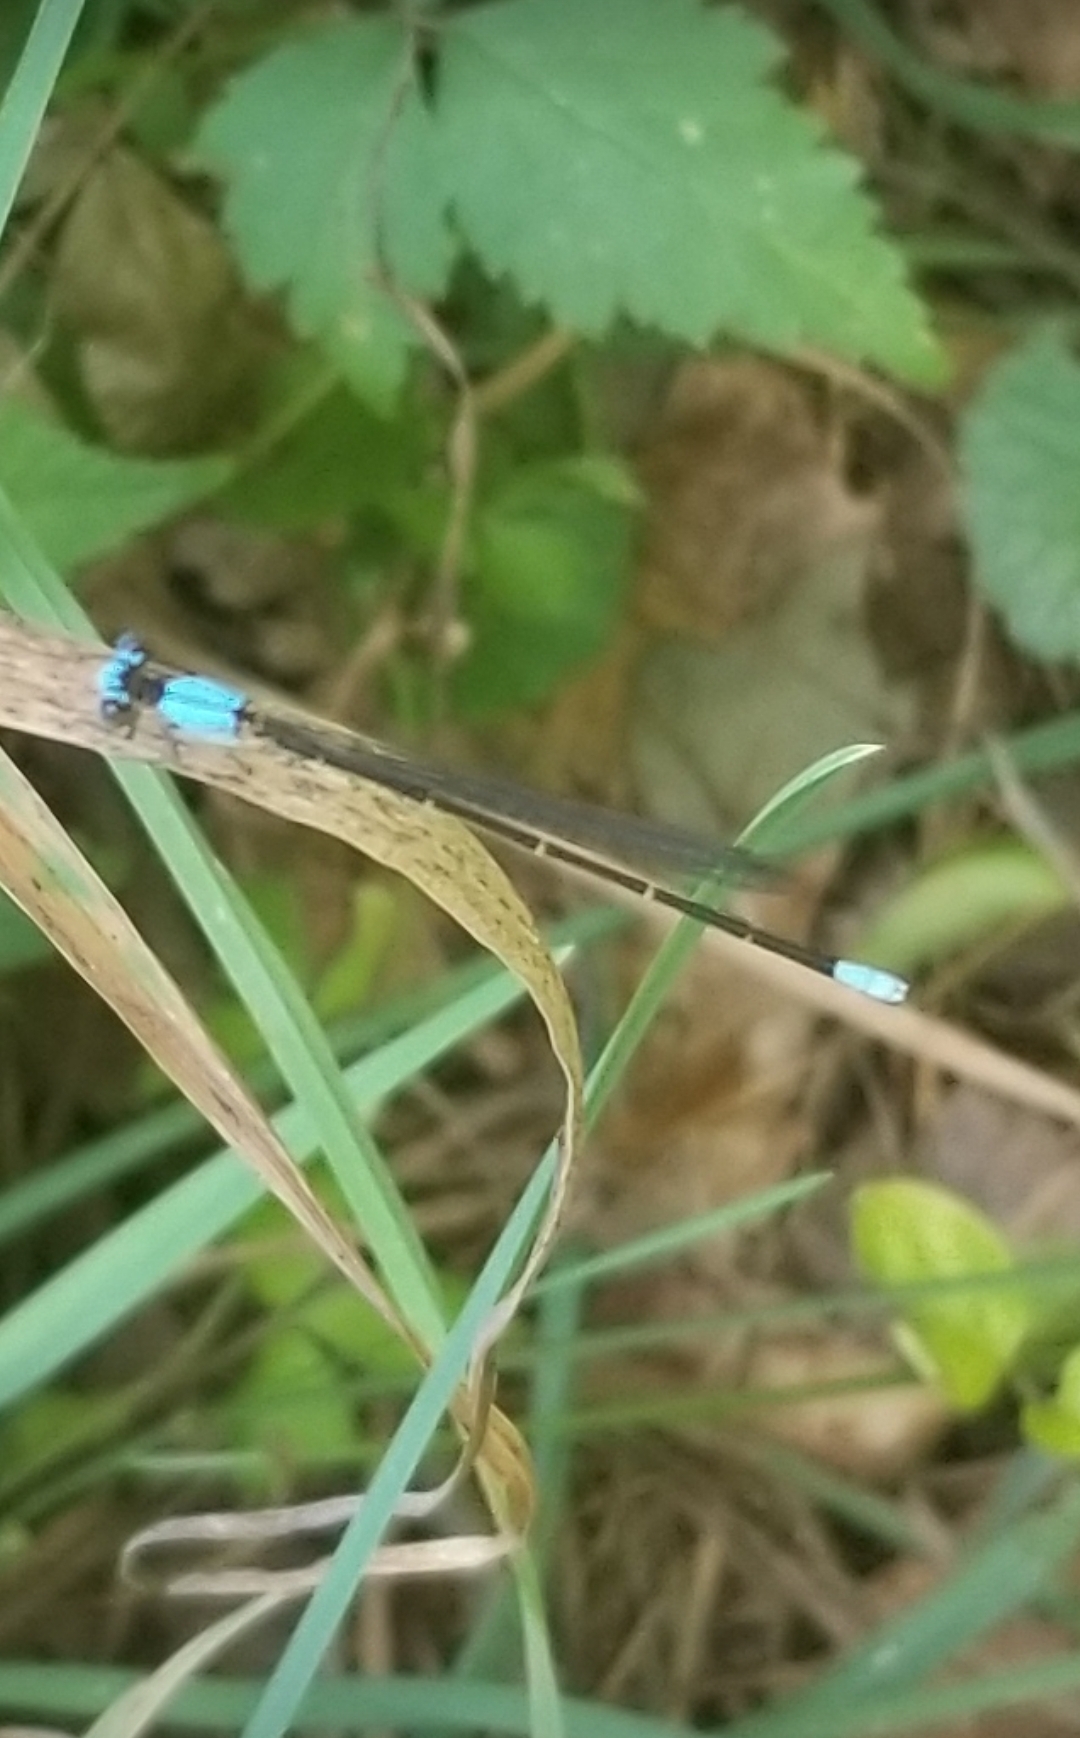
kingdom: Animalia
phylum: Arthropoda
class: Insecta
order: Odonata
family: Coenagrionidae
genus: Argia
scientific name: Argia apicalis
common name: Blue-fronted dancer
